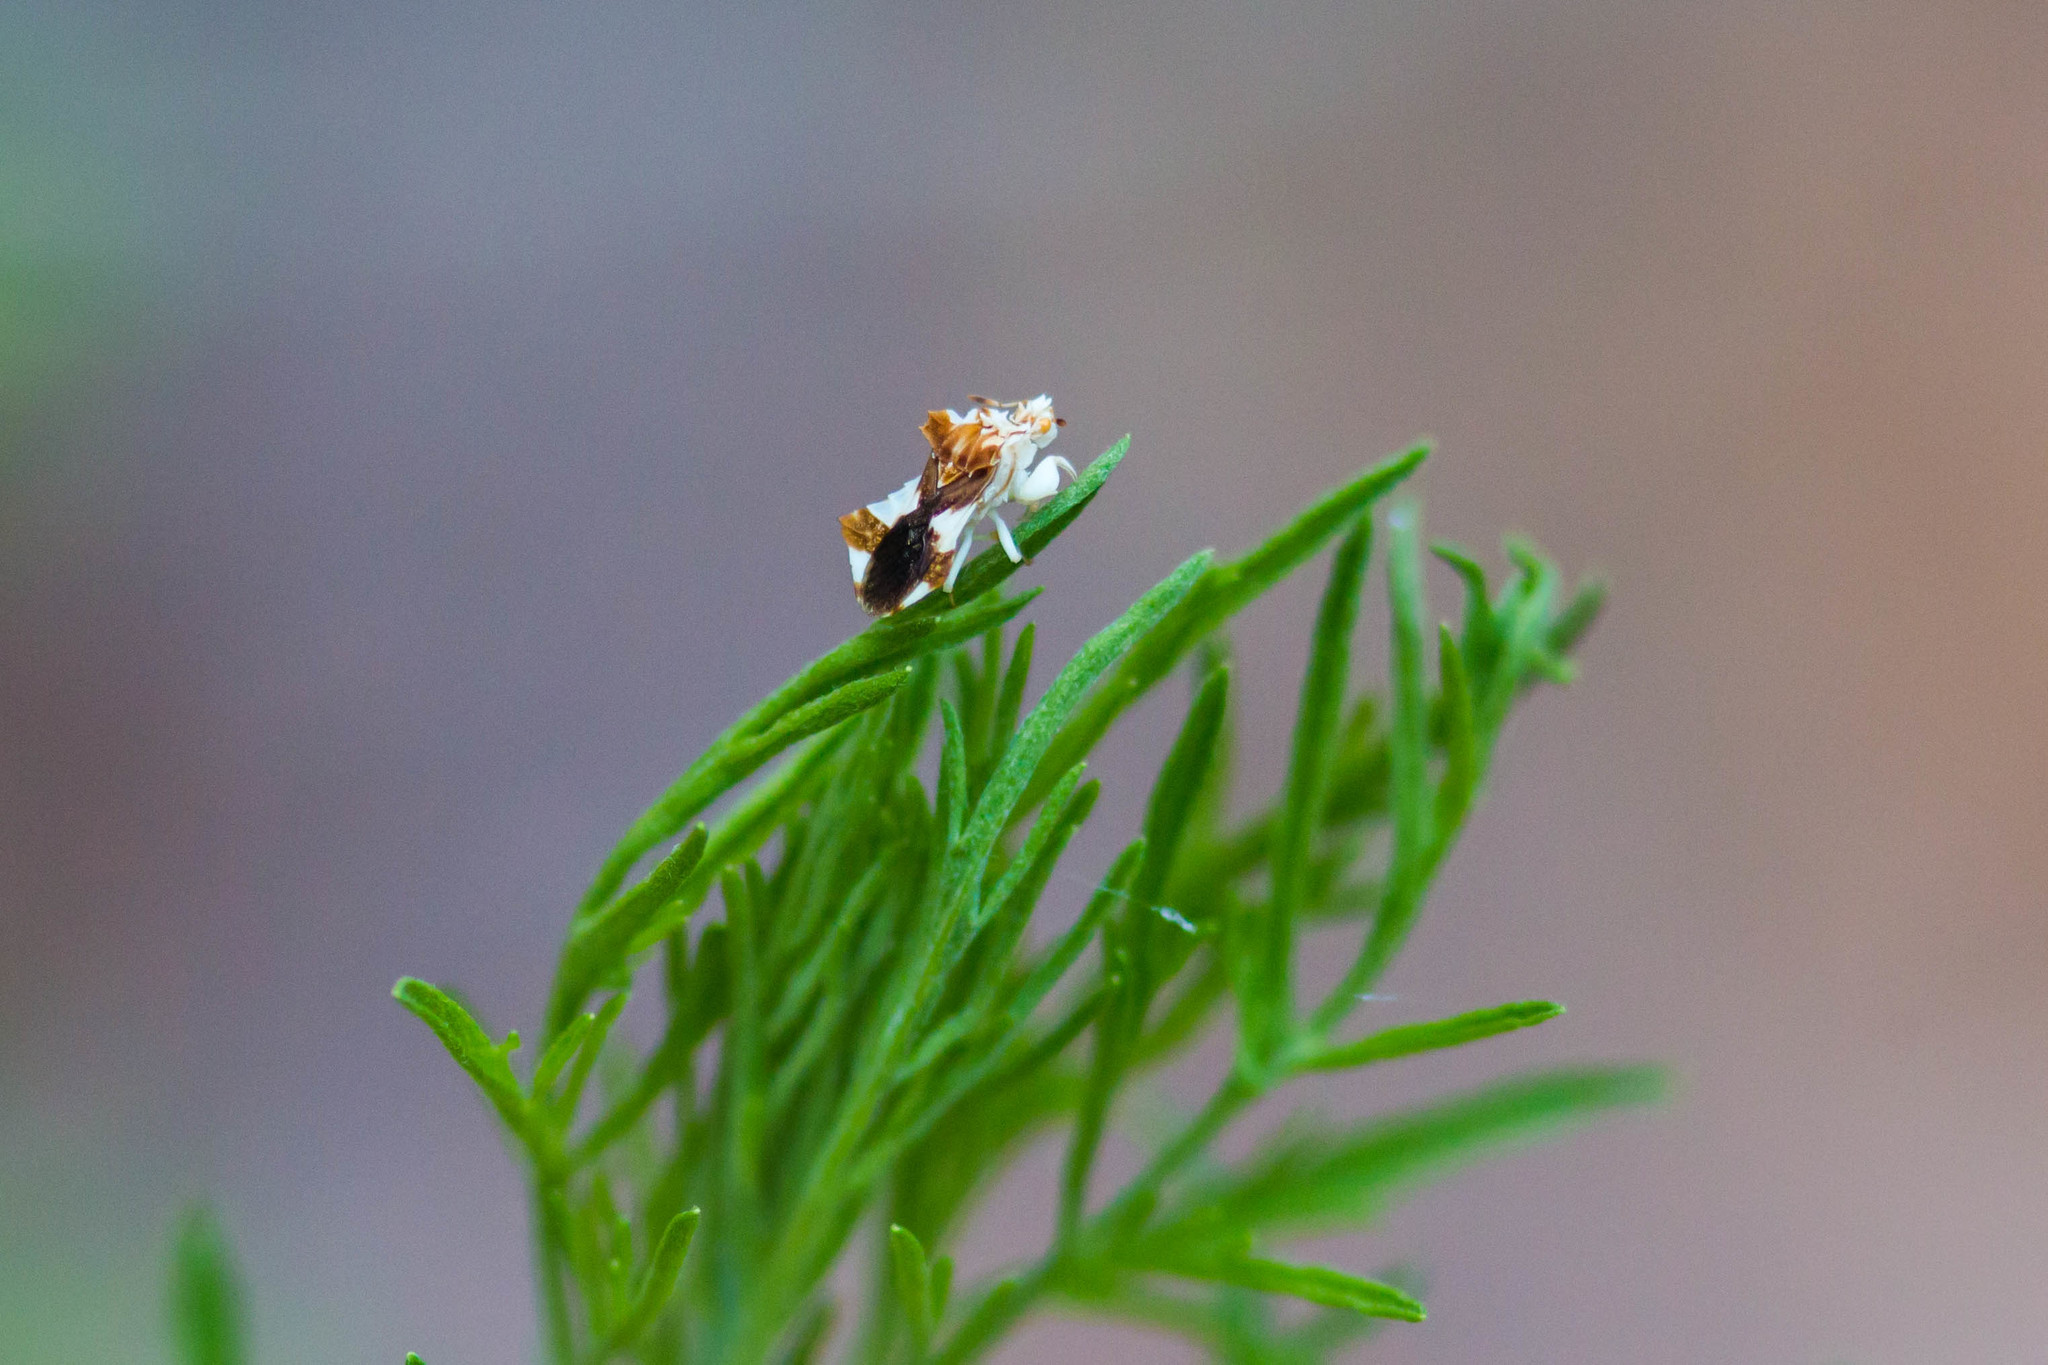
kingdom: Animalia
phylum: Arthropoda
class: Insecta
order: Hemiptera
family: Reduviidae
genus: Phymata
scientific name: Phymata fasciata
